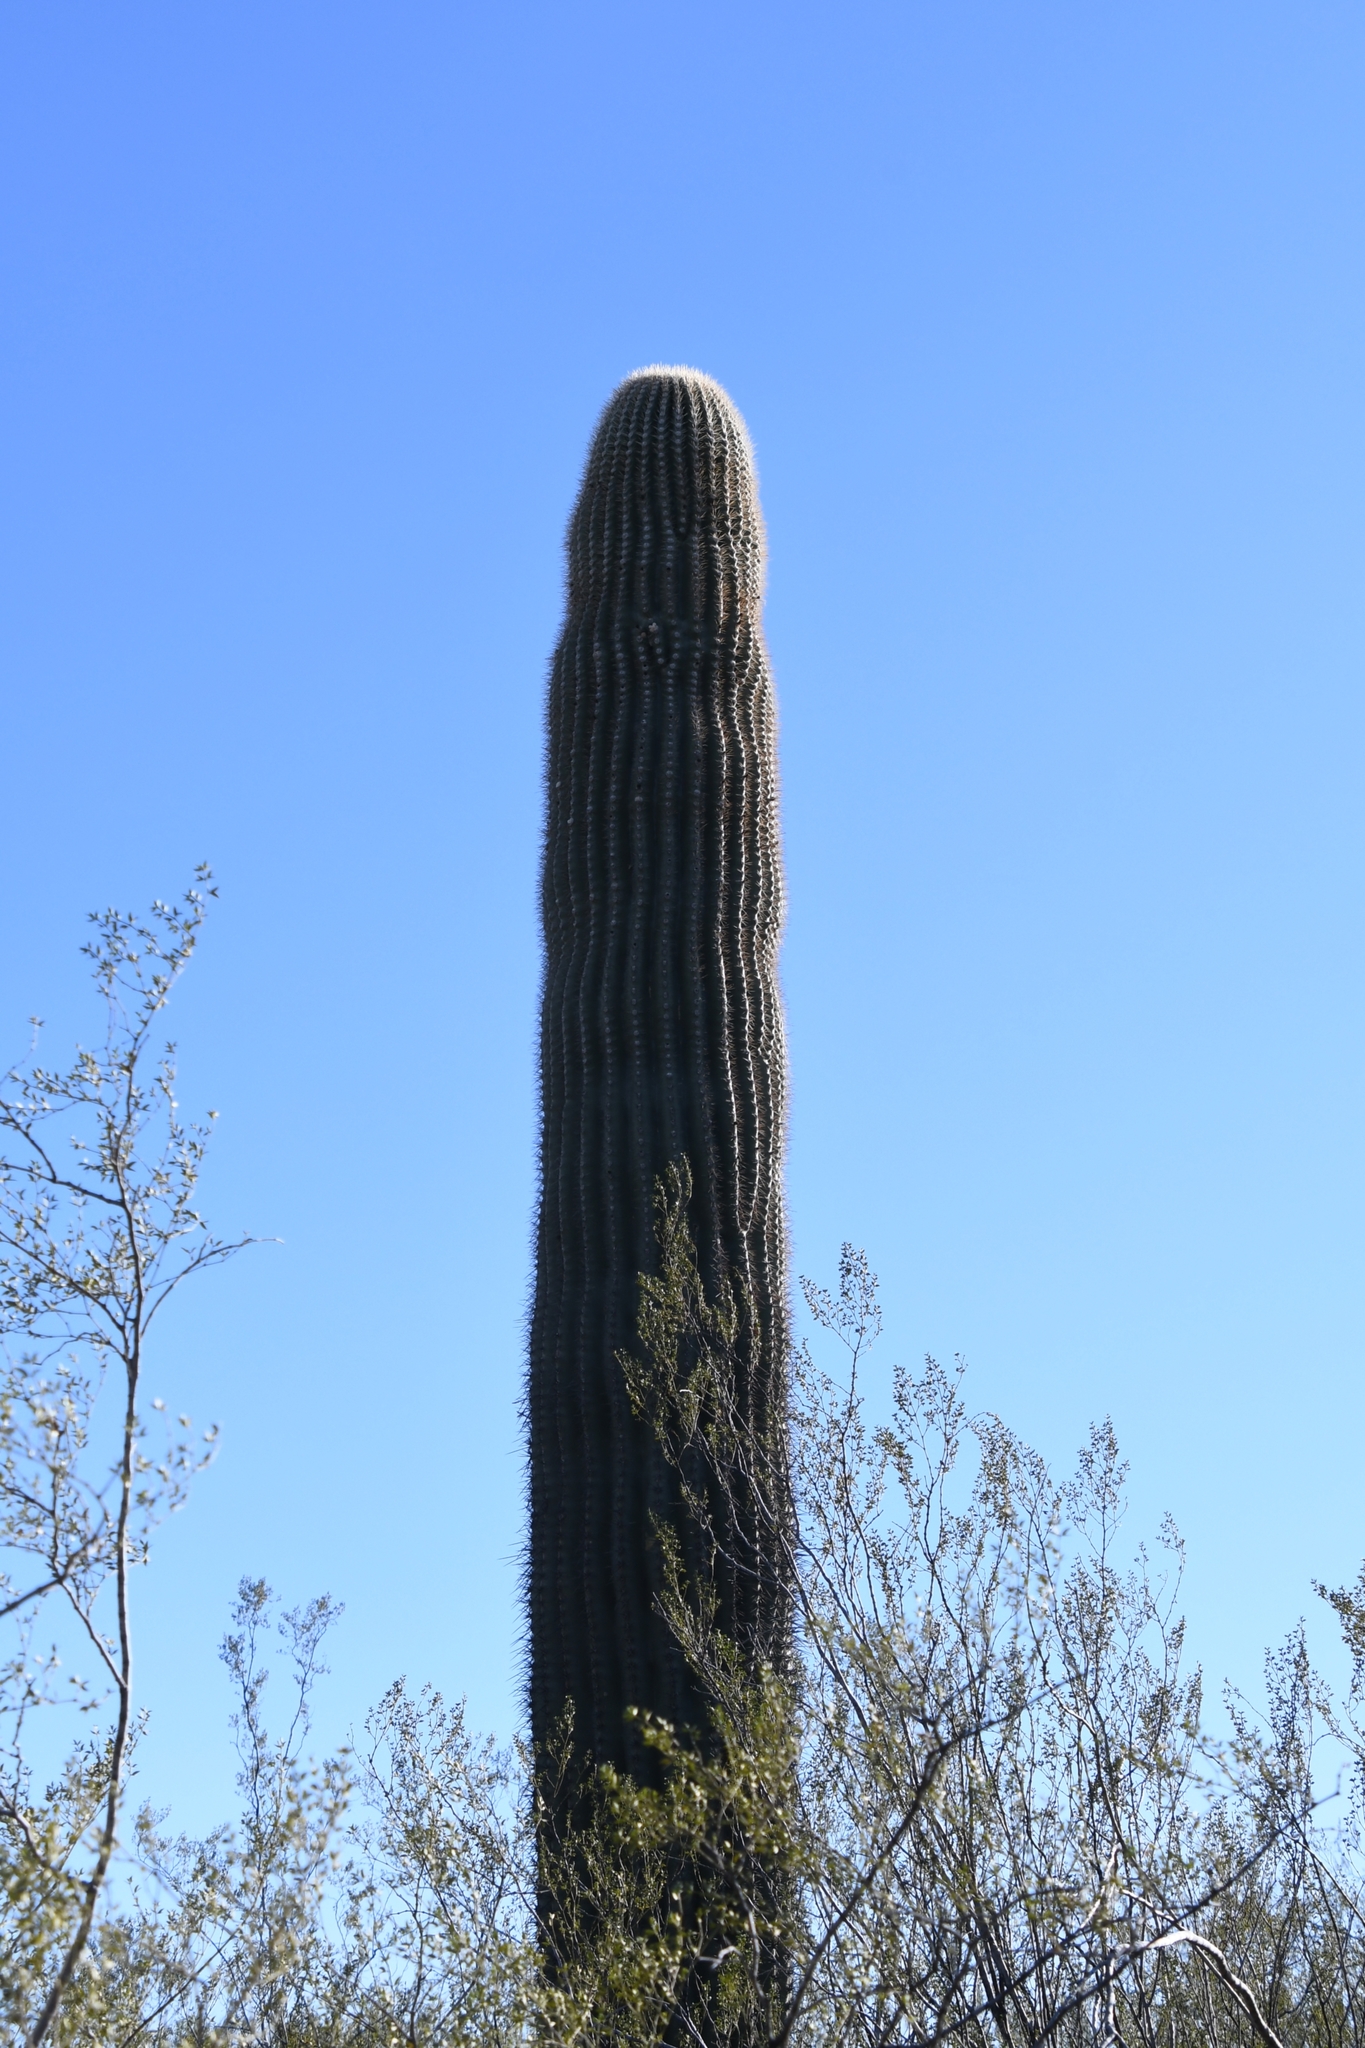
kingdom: Plantae
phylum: Tracheophyta
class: Magnoliopsida
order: Caryophyllales
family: Cactaceae
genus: Carnegiea
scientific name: Carnegiea gigantea
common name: Saguaro
